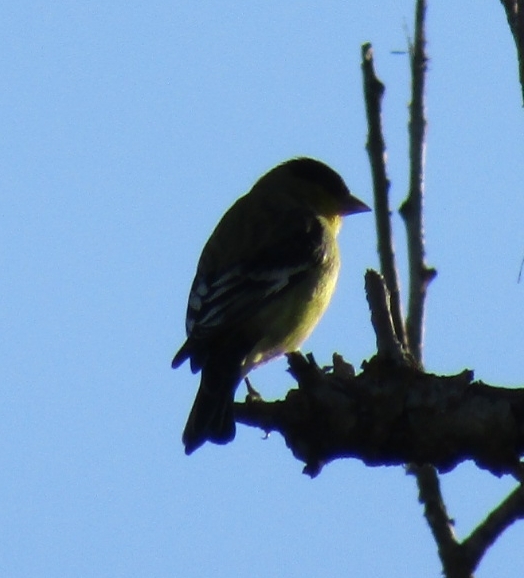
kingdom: Animalia
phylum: Chordata
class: Aves
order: Passeriformes
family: Fringillidae
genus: Spinus
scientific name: Spinus psaltria
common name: Lesser goldfinch
